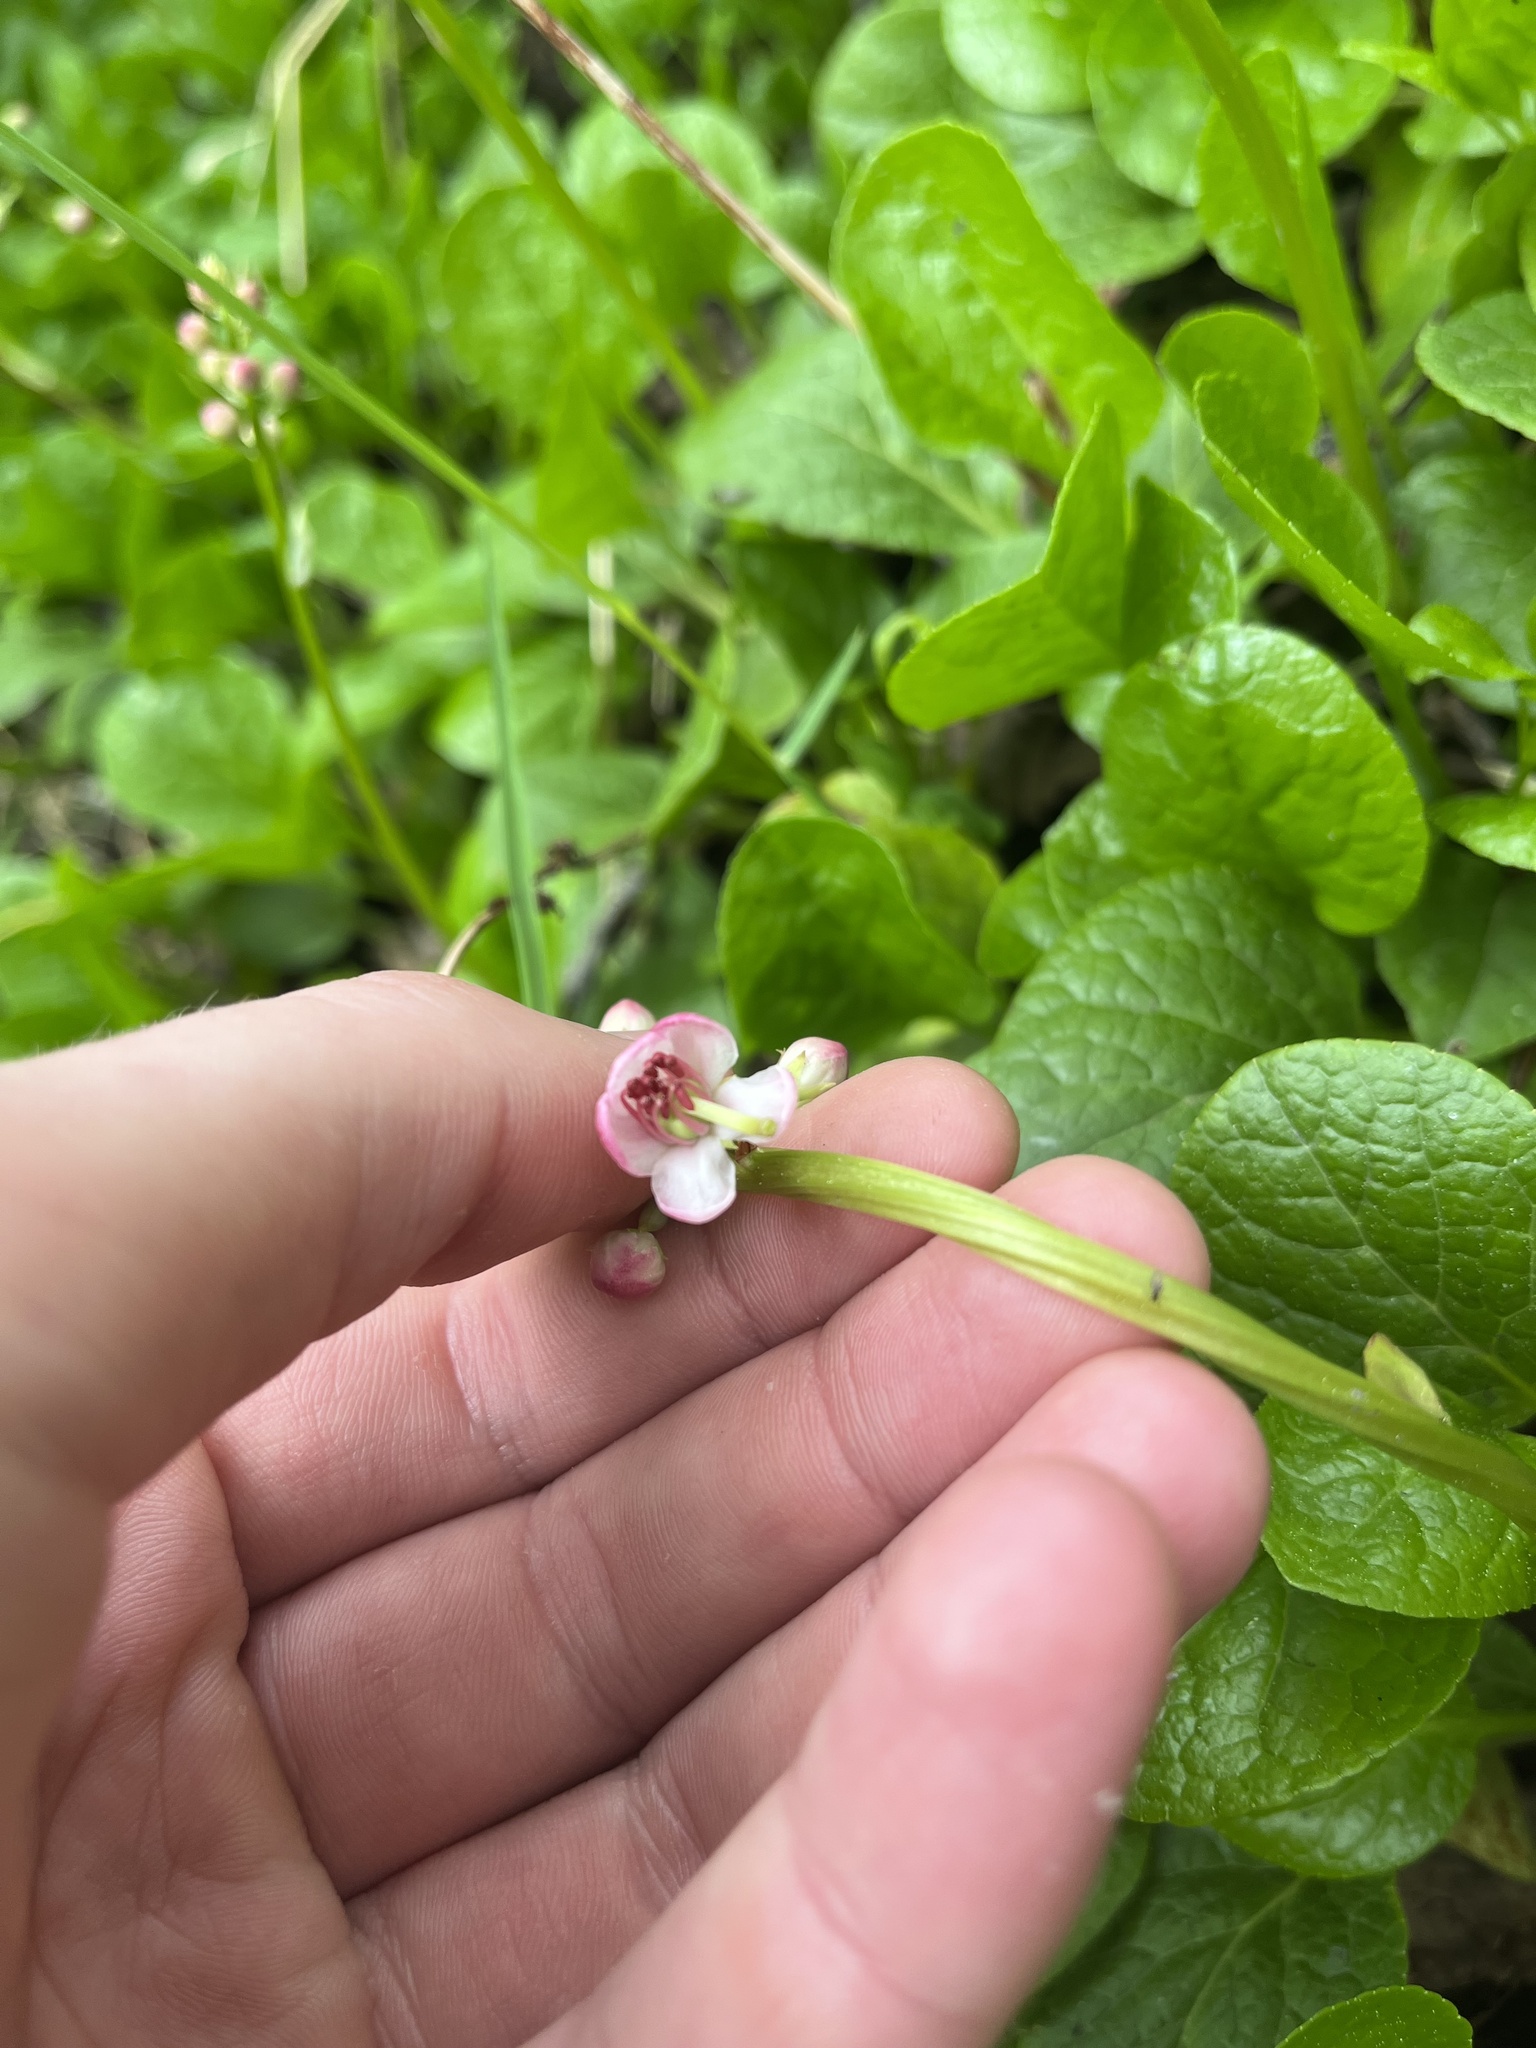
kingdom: Plantae
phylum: Tracheophyta
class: Magnoliopsida
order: Ericales
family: Ericaceae
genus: Pyrola
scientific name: Pyrola asarifolia
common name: Bog wintergreen
